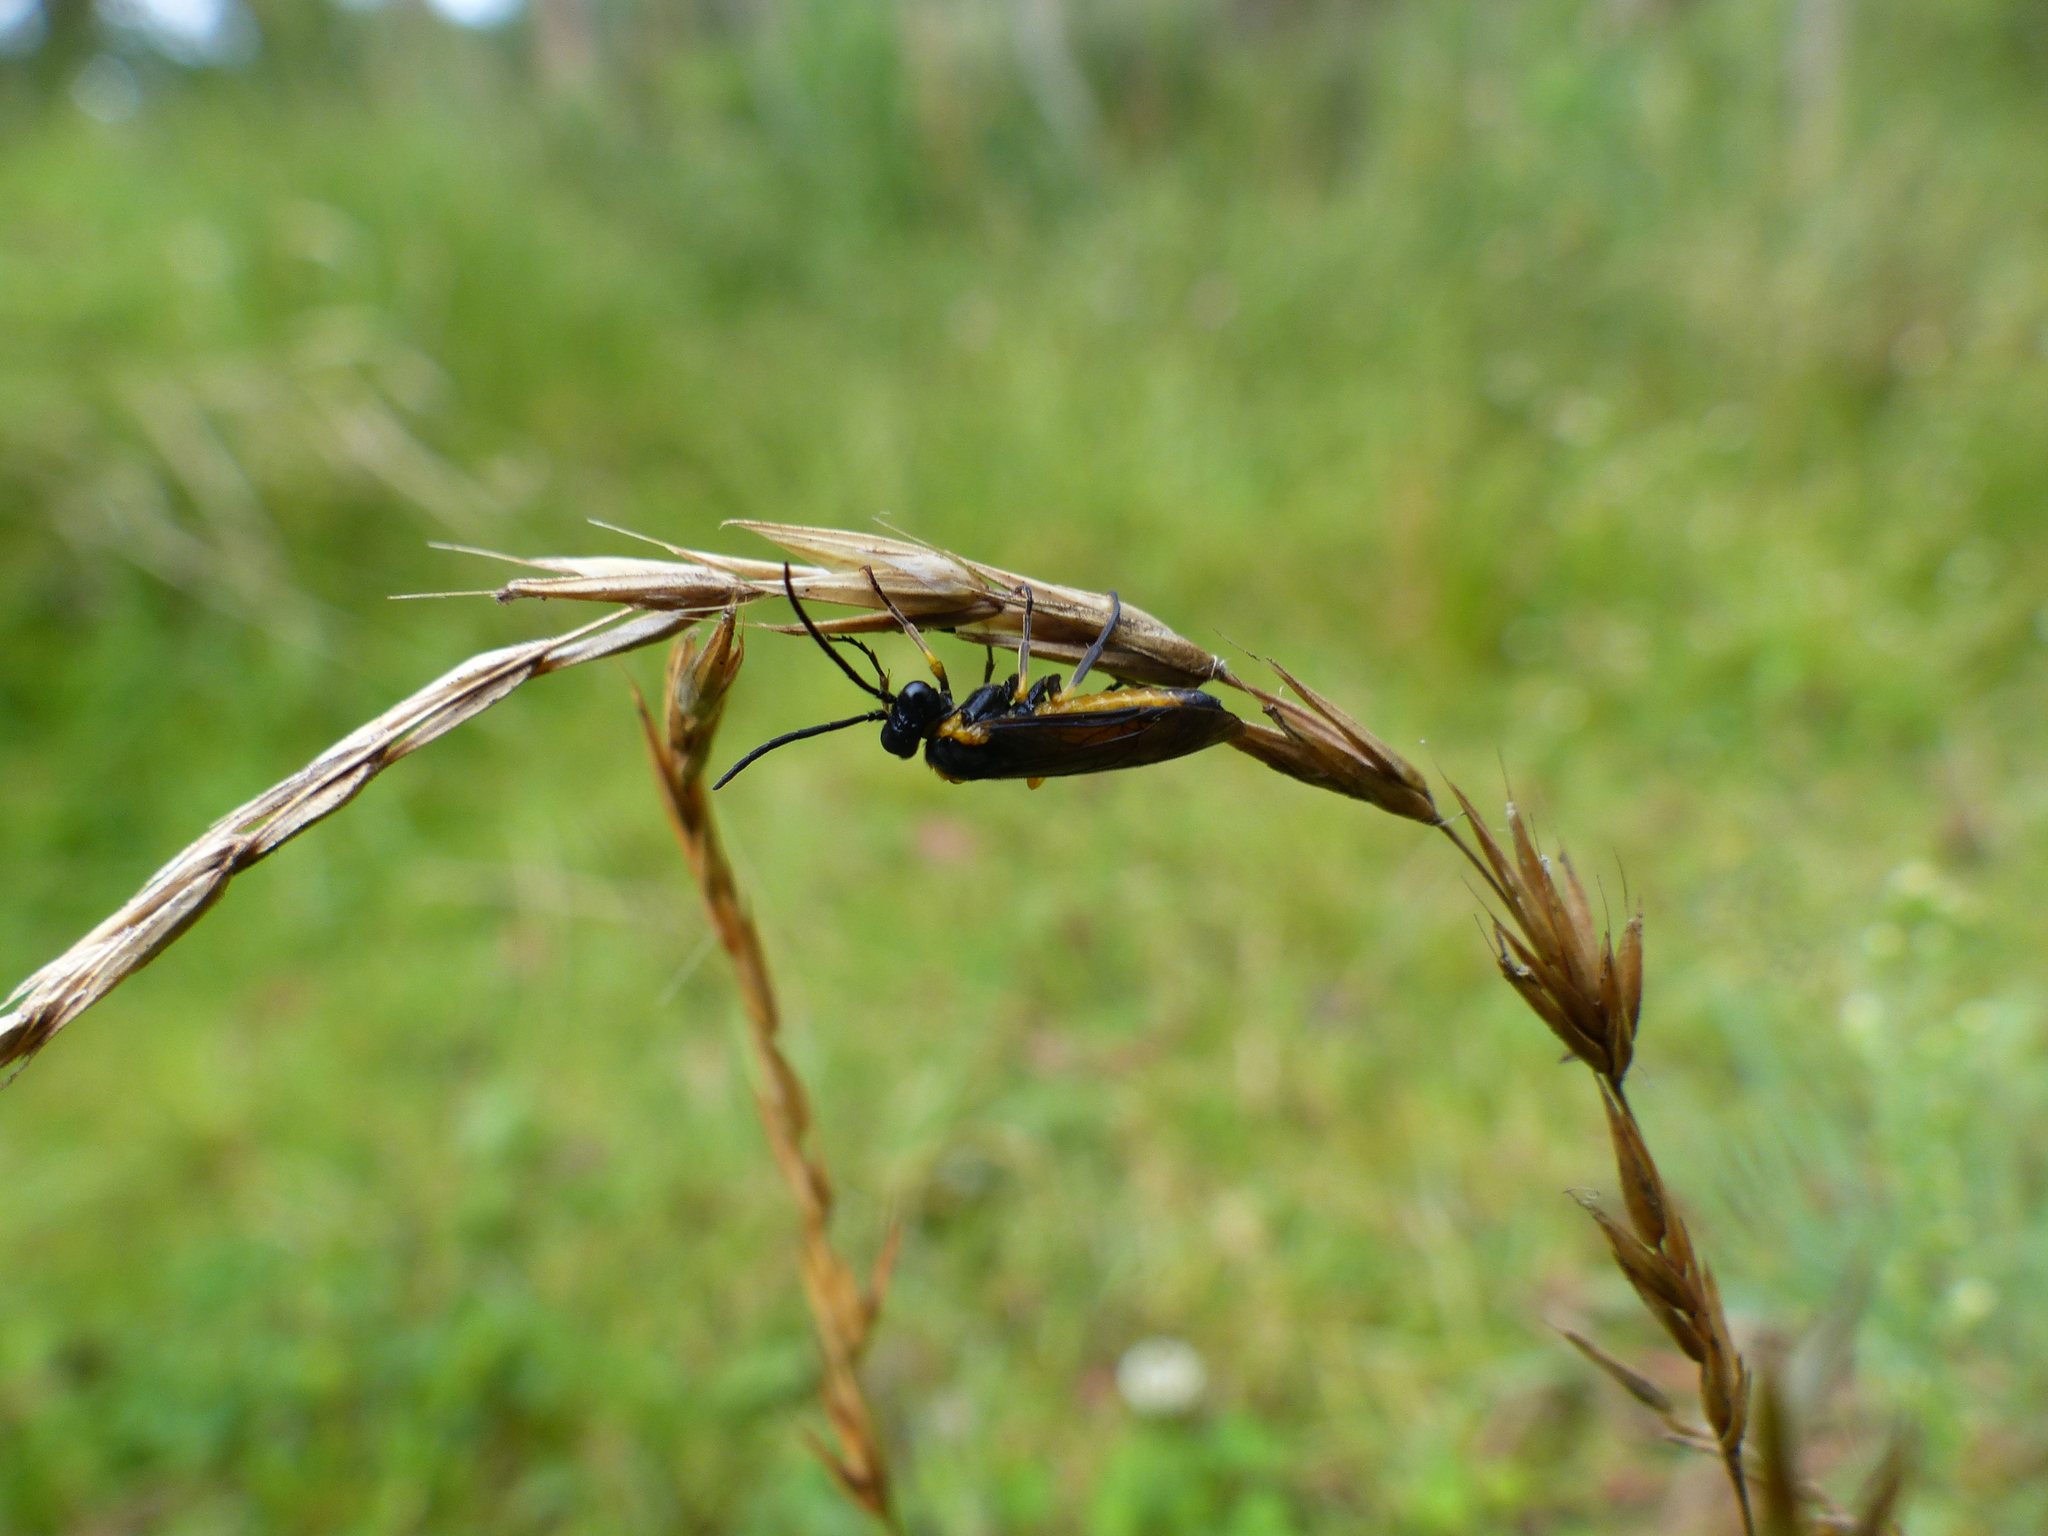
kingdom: Animalia
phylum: Arthropoda
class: Insecta
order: Hymenoptera
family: Tenthredinidae
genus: Andeana
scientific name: Andeana farcta
